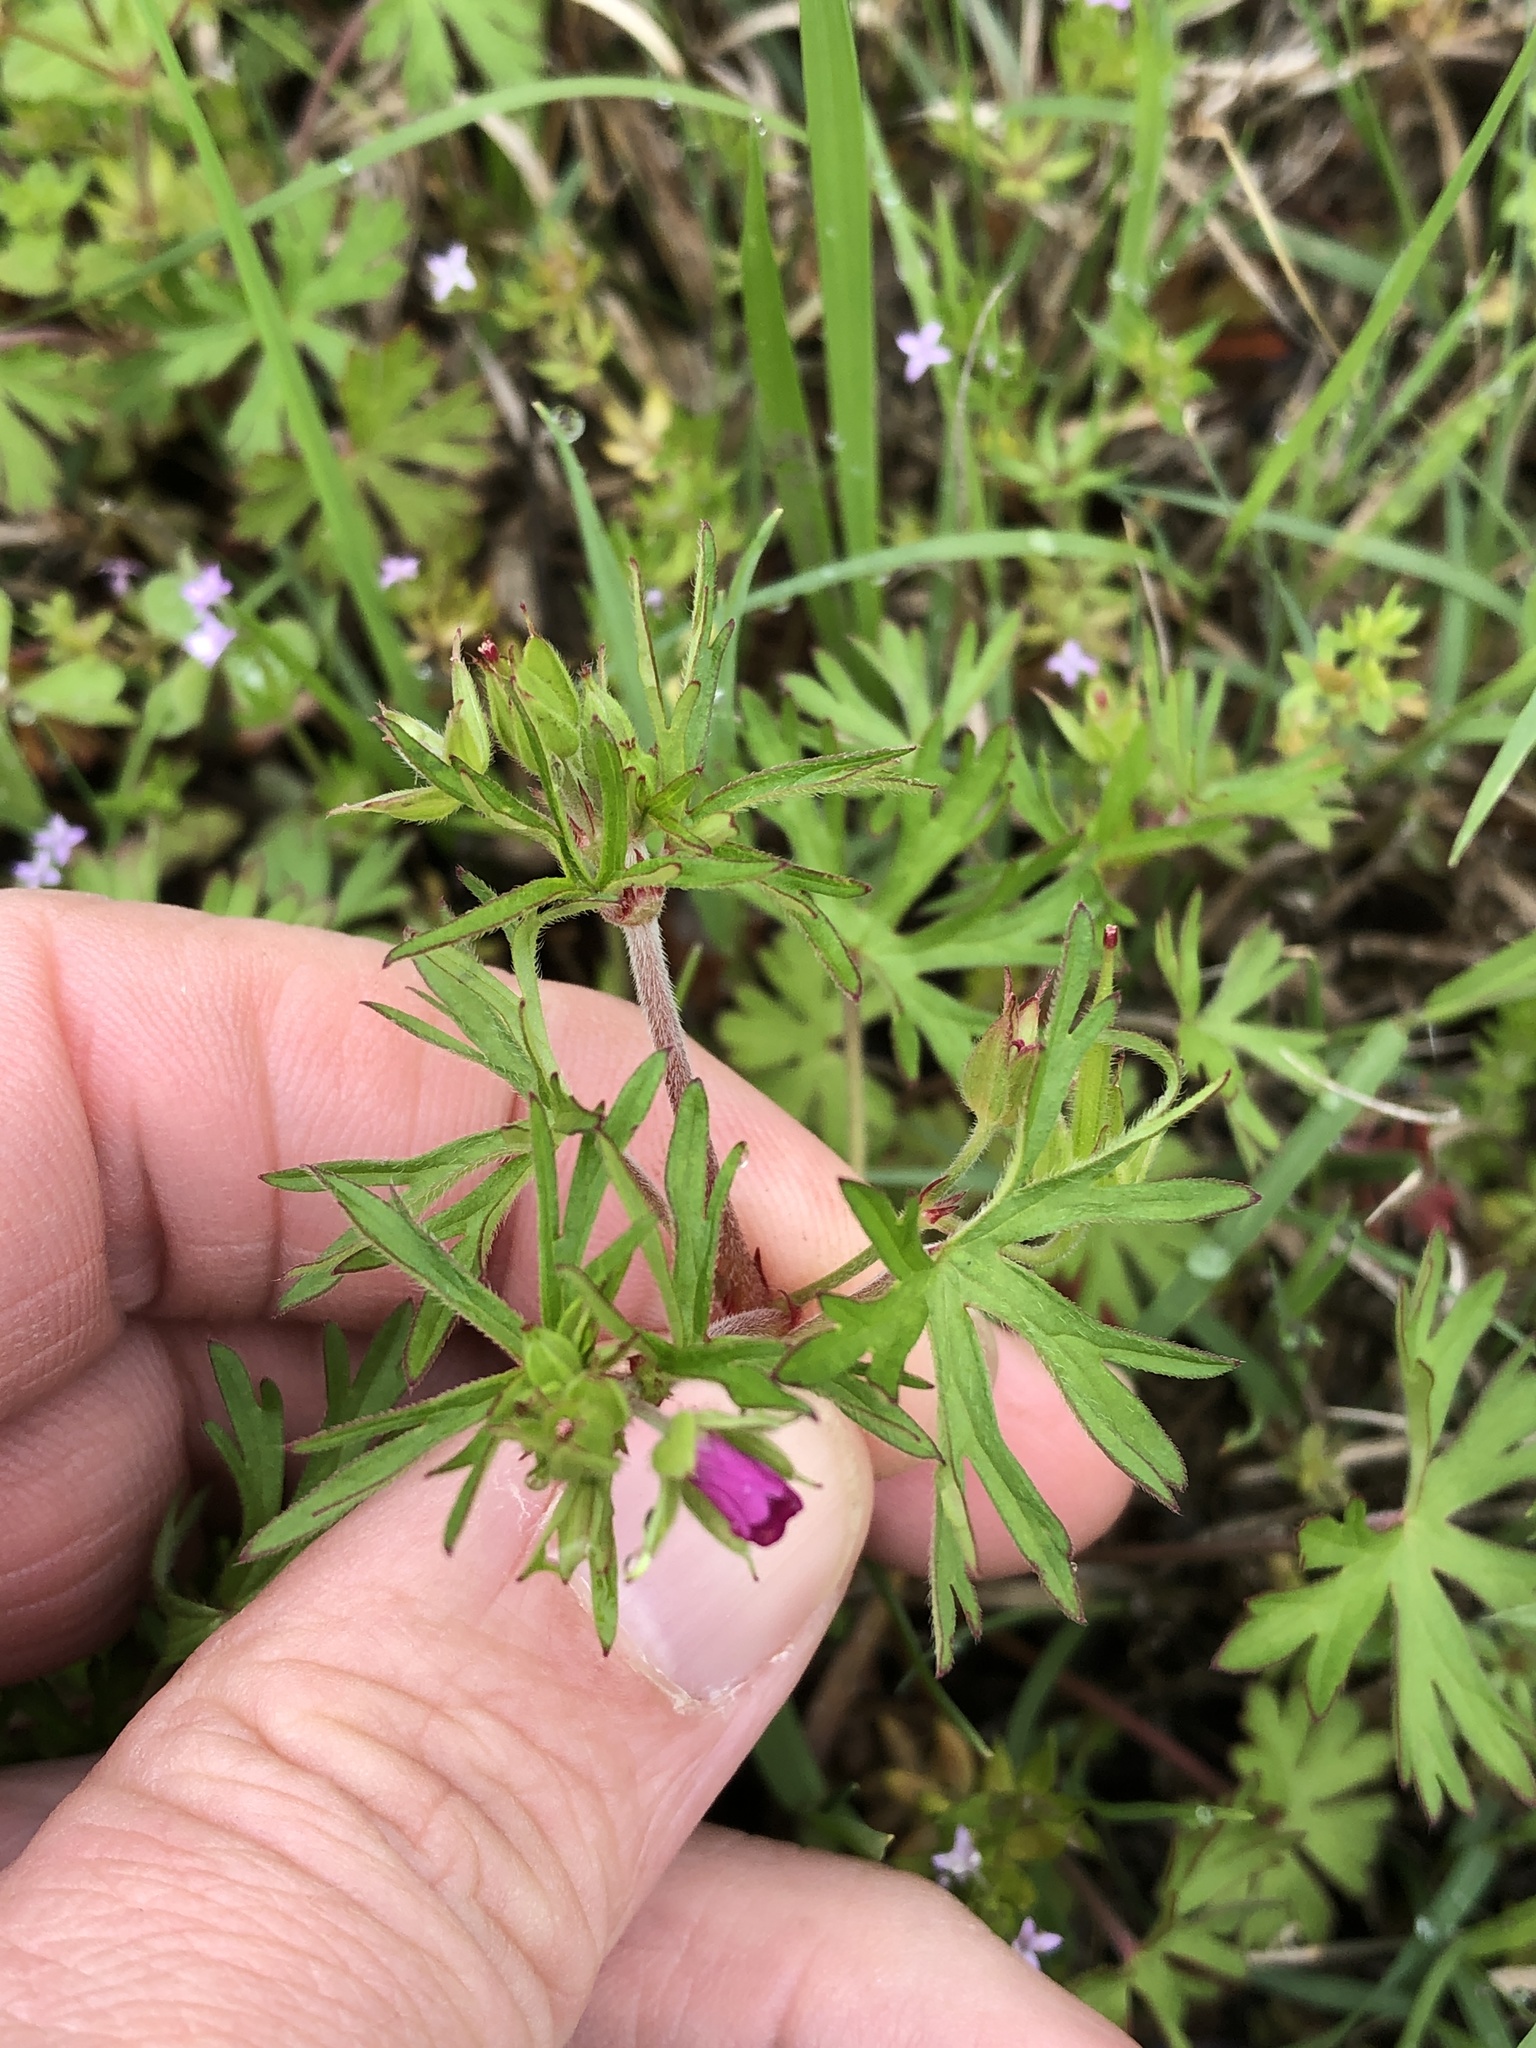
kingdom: Plantae
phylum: Tracheophyta
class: Magnoliopsida
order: Geraniales
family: Geraniaceae
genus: Geranium
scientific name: Geranium dissectum
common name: Cut-leaved crane's-bill
